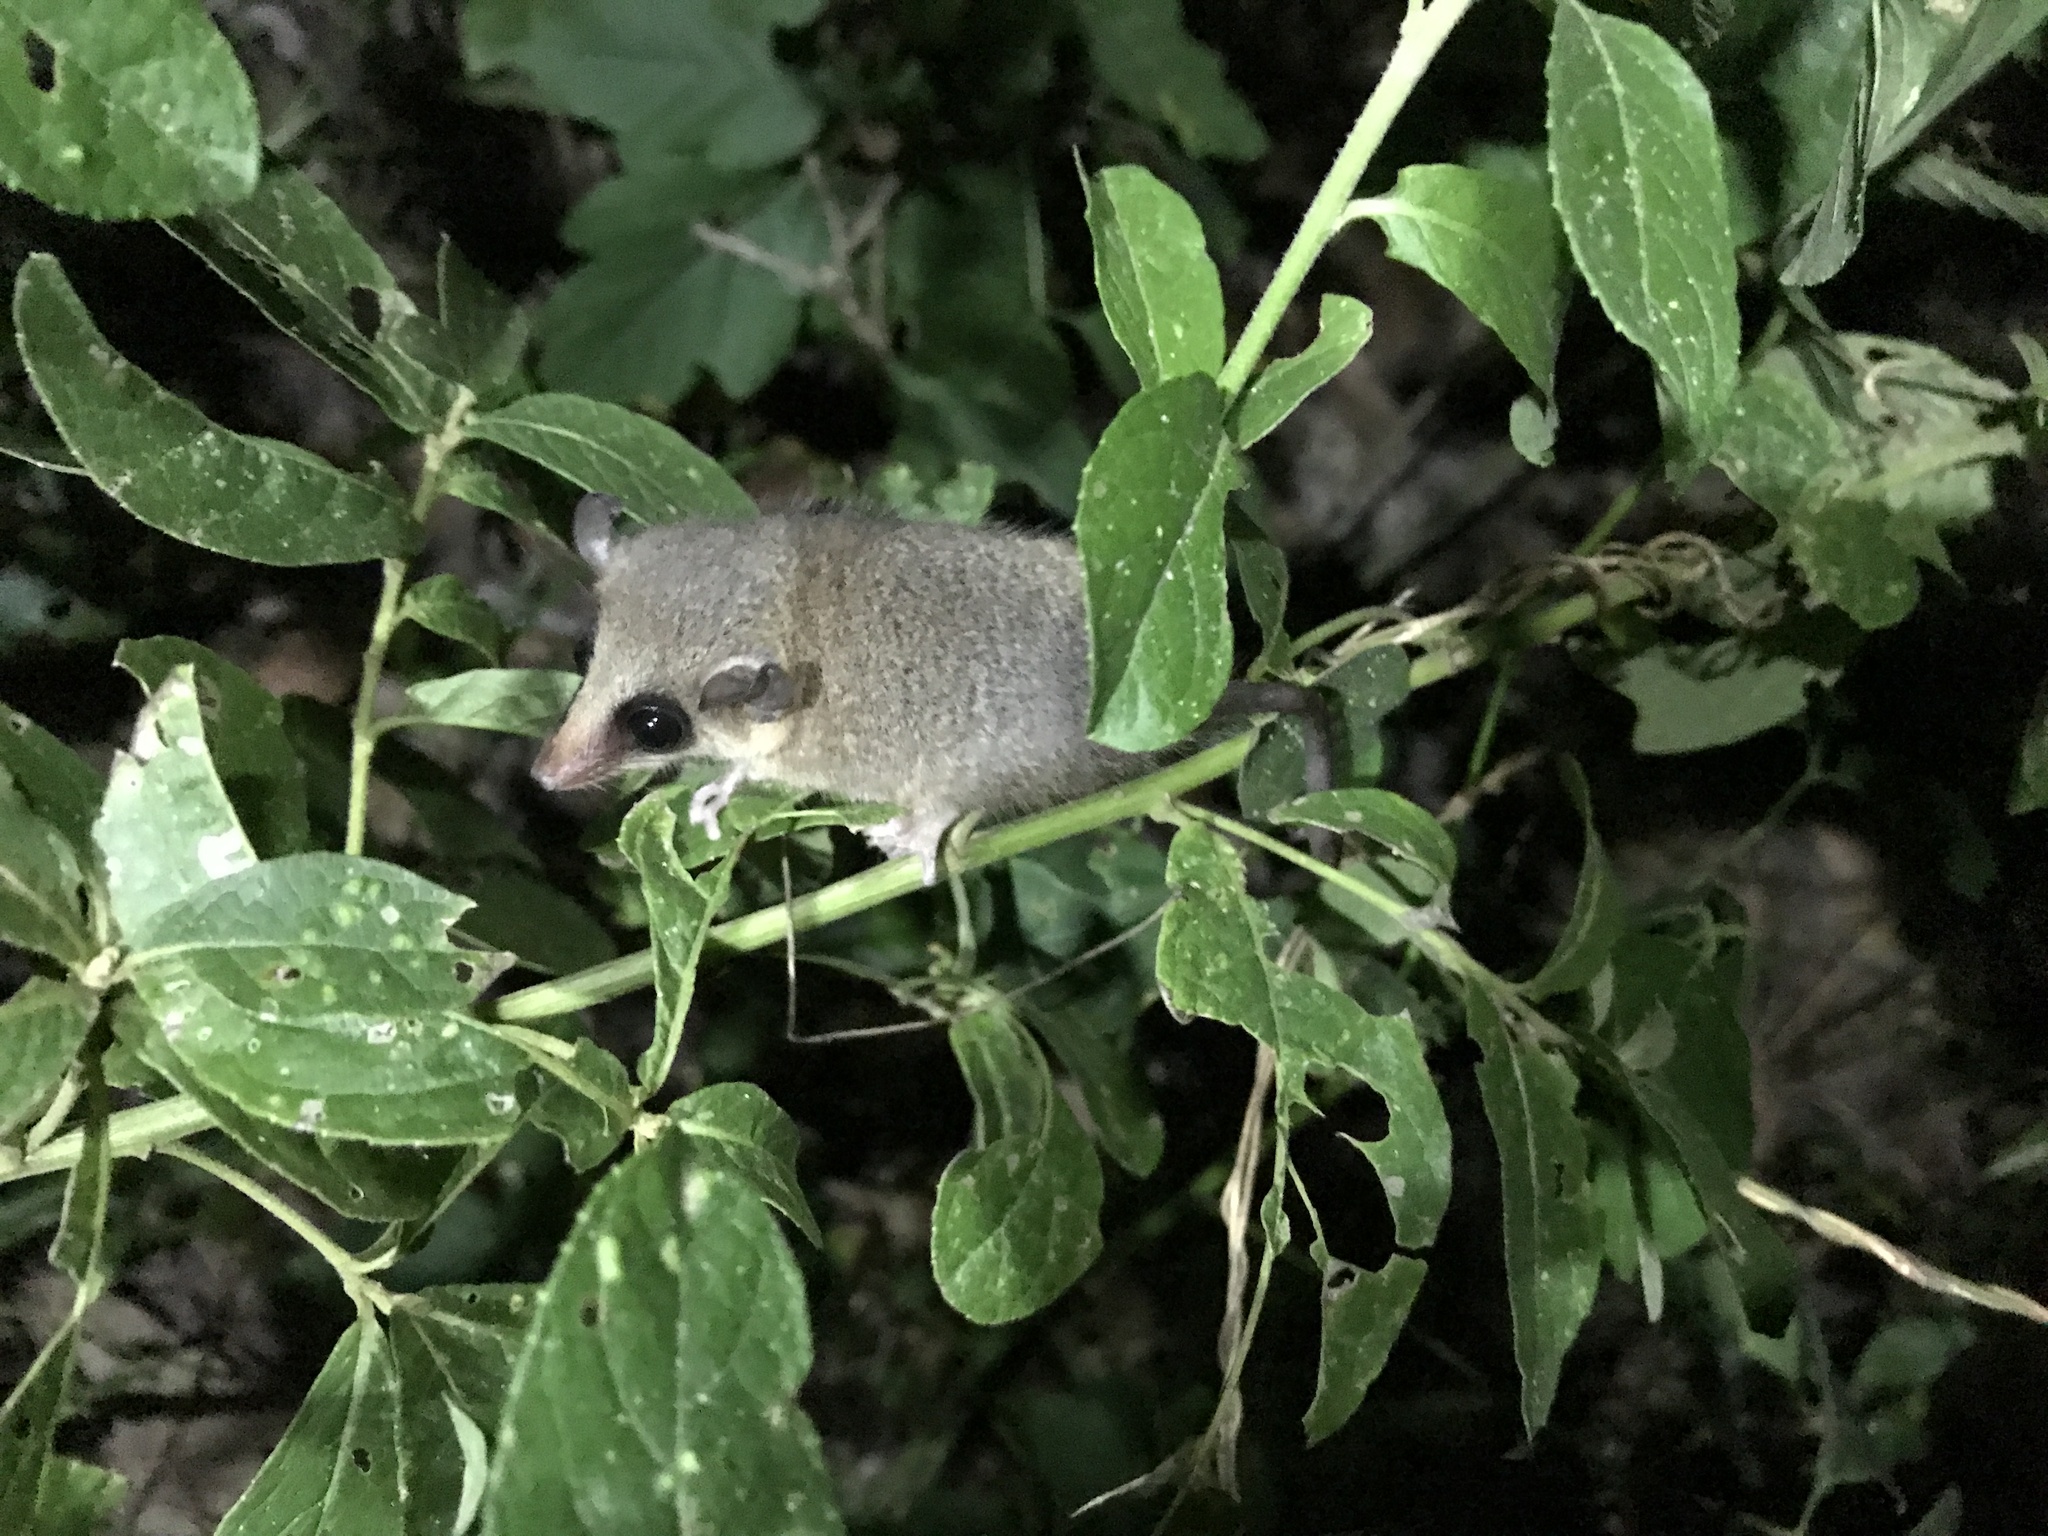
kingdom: Animalia
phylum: Chordata
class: Mammalia
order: Didelphimorphia
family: Didelphidae
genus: Marmosa
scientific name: Marmosa murina
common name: Linnaeus's mouse opossum
